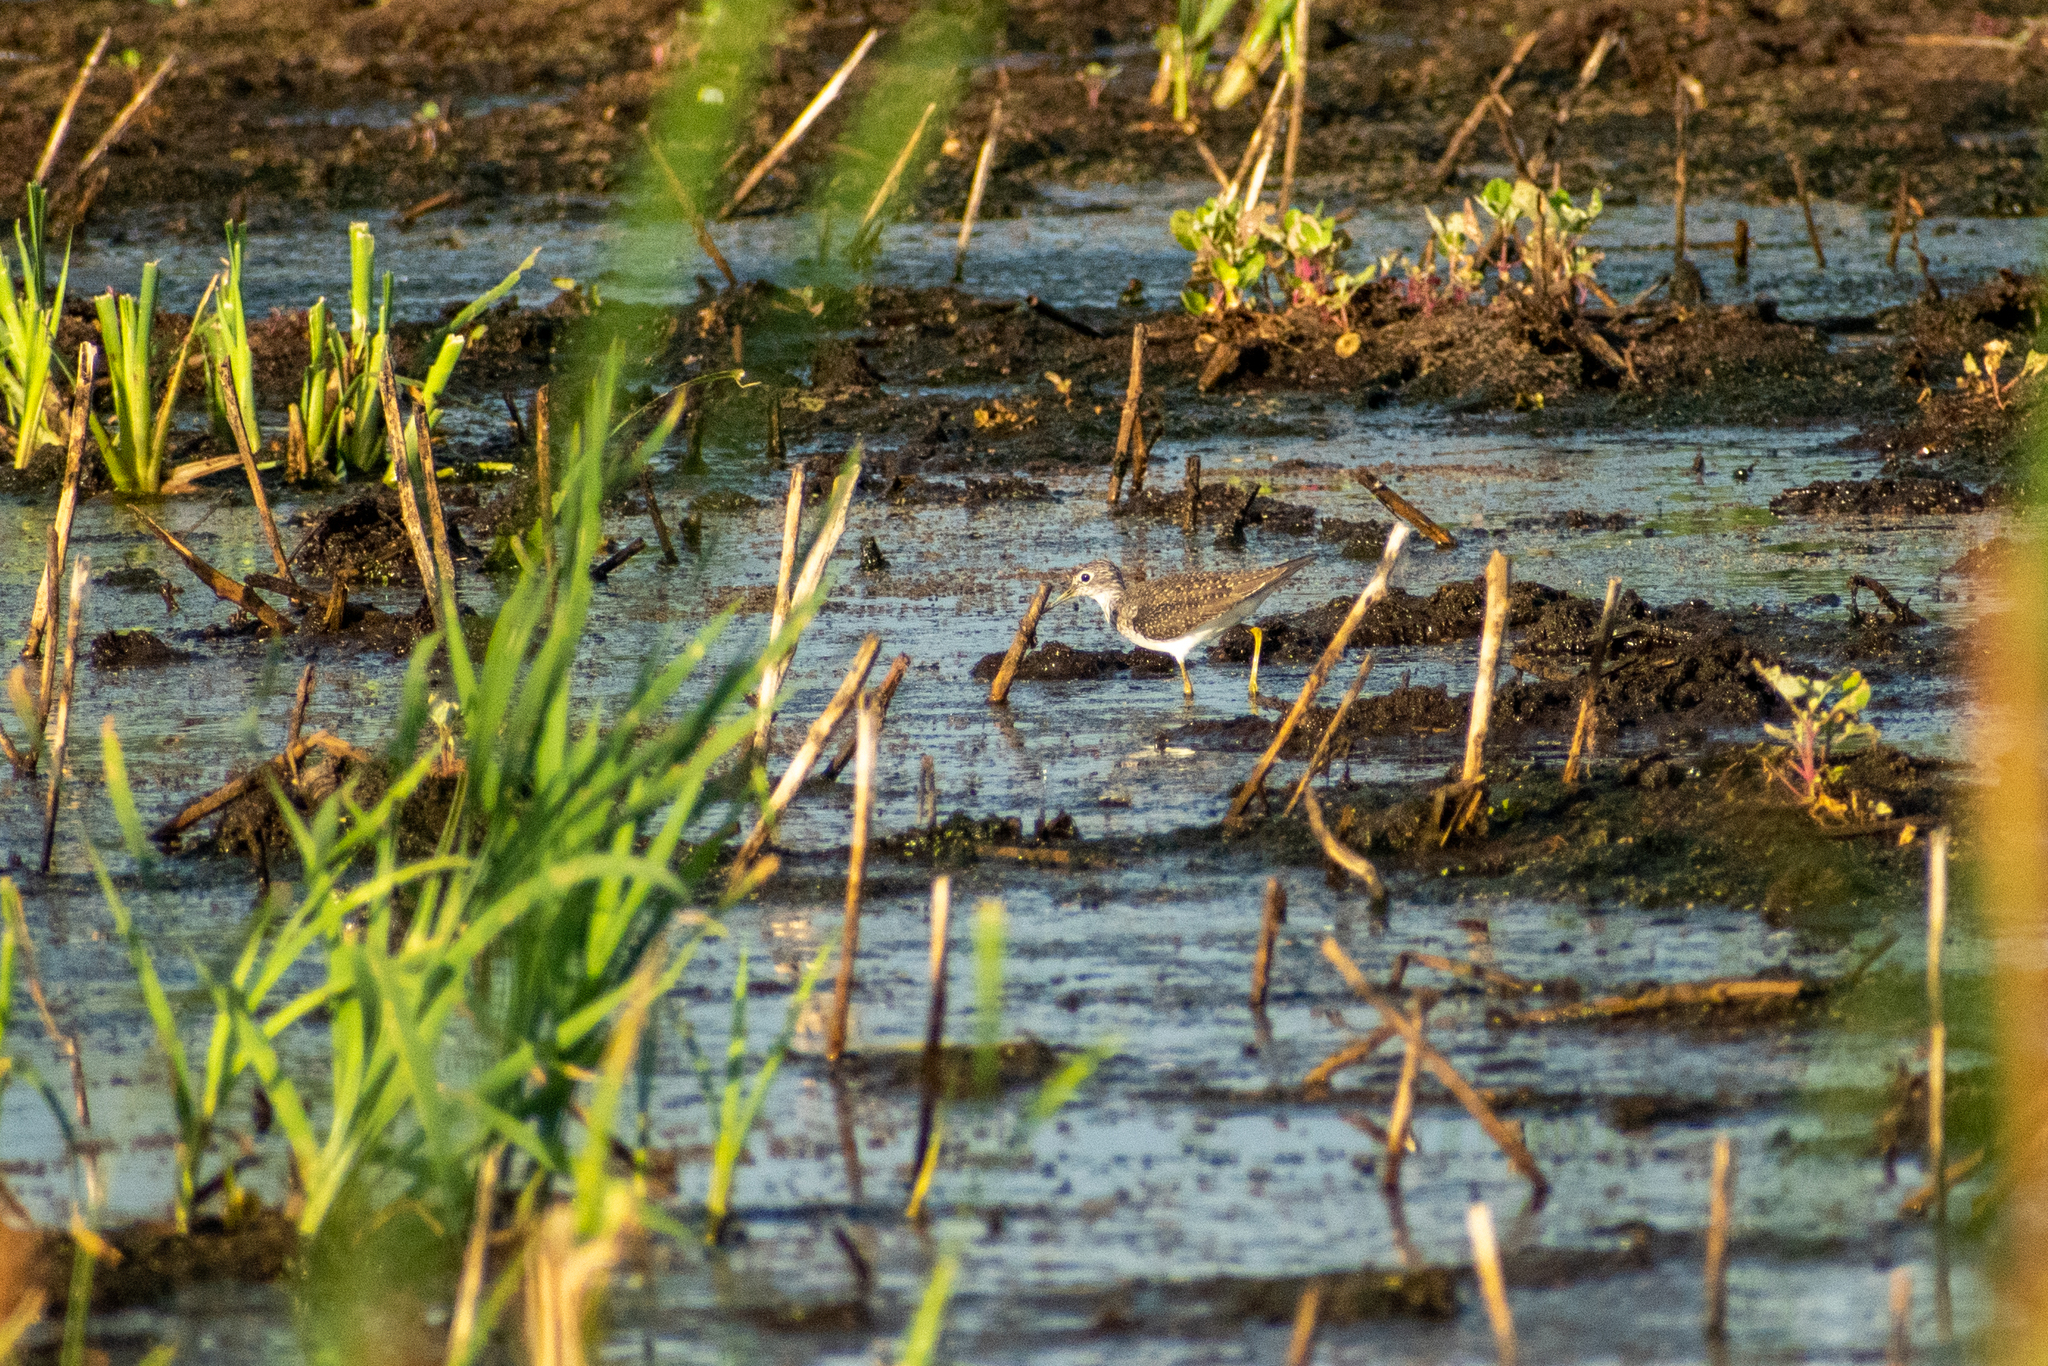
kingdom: Animalia
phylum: Chordata
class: Aves
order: Charadriiformes
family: Scolopacidae
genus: Tringa
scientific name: Tringa solitaria
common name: Solitary sandpiper
